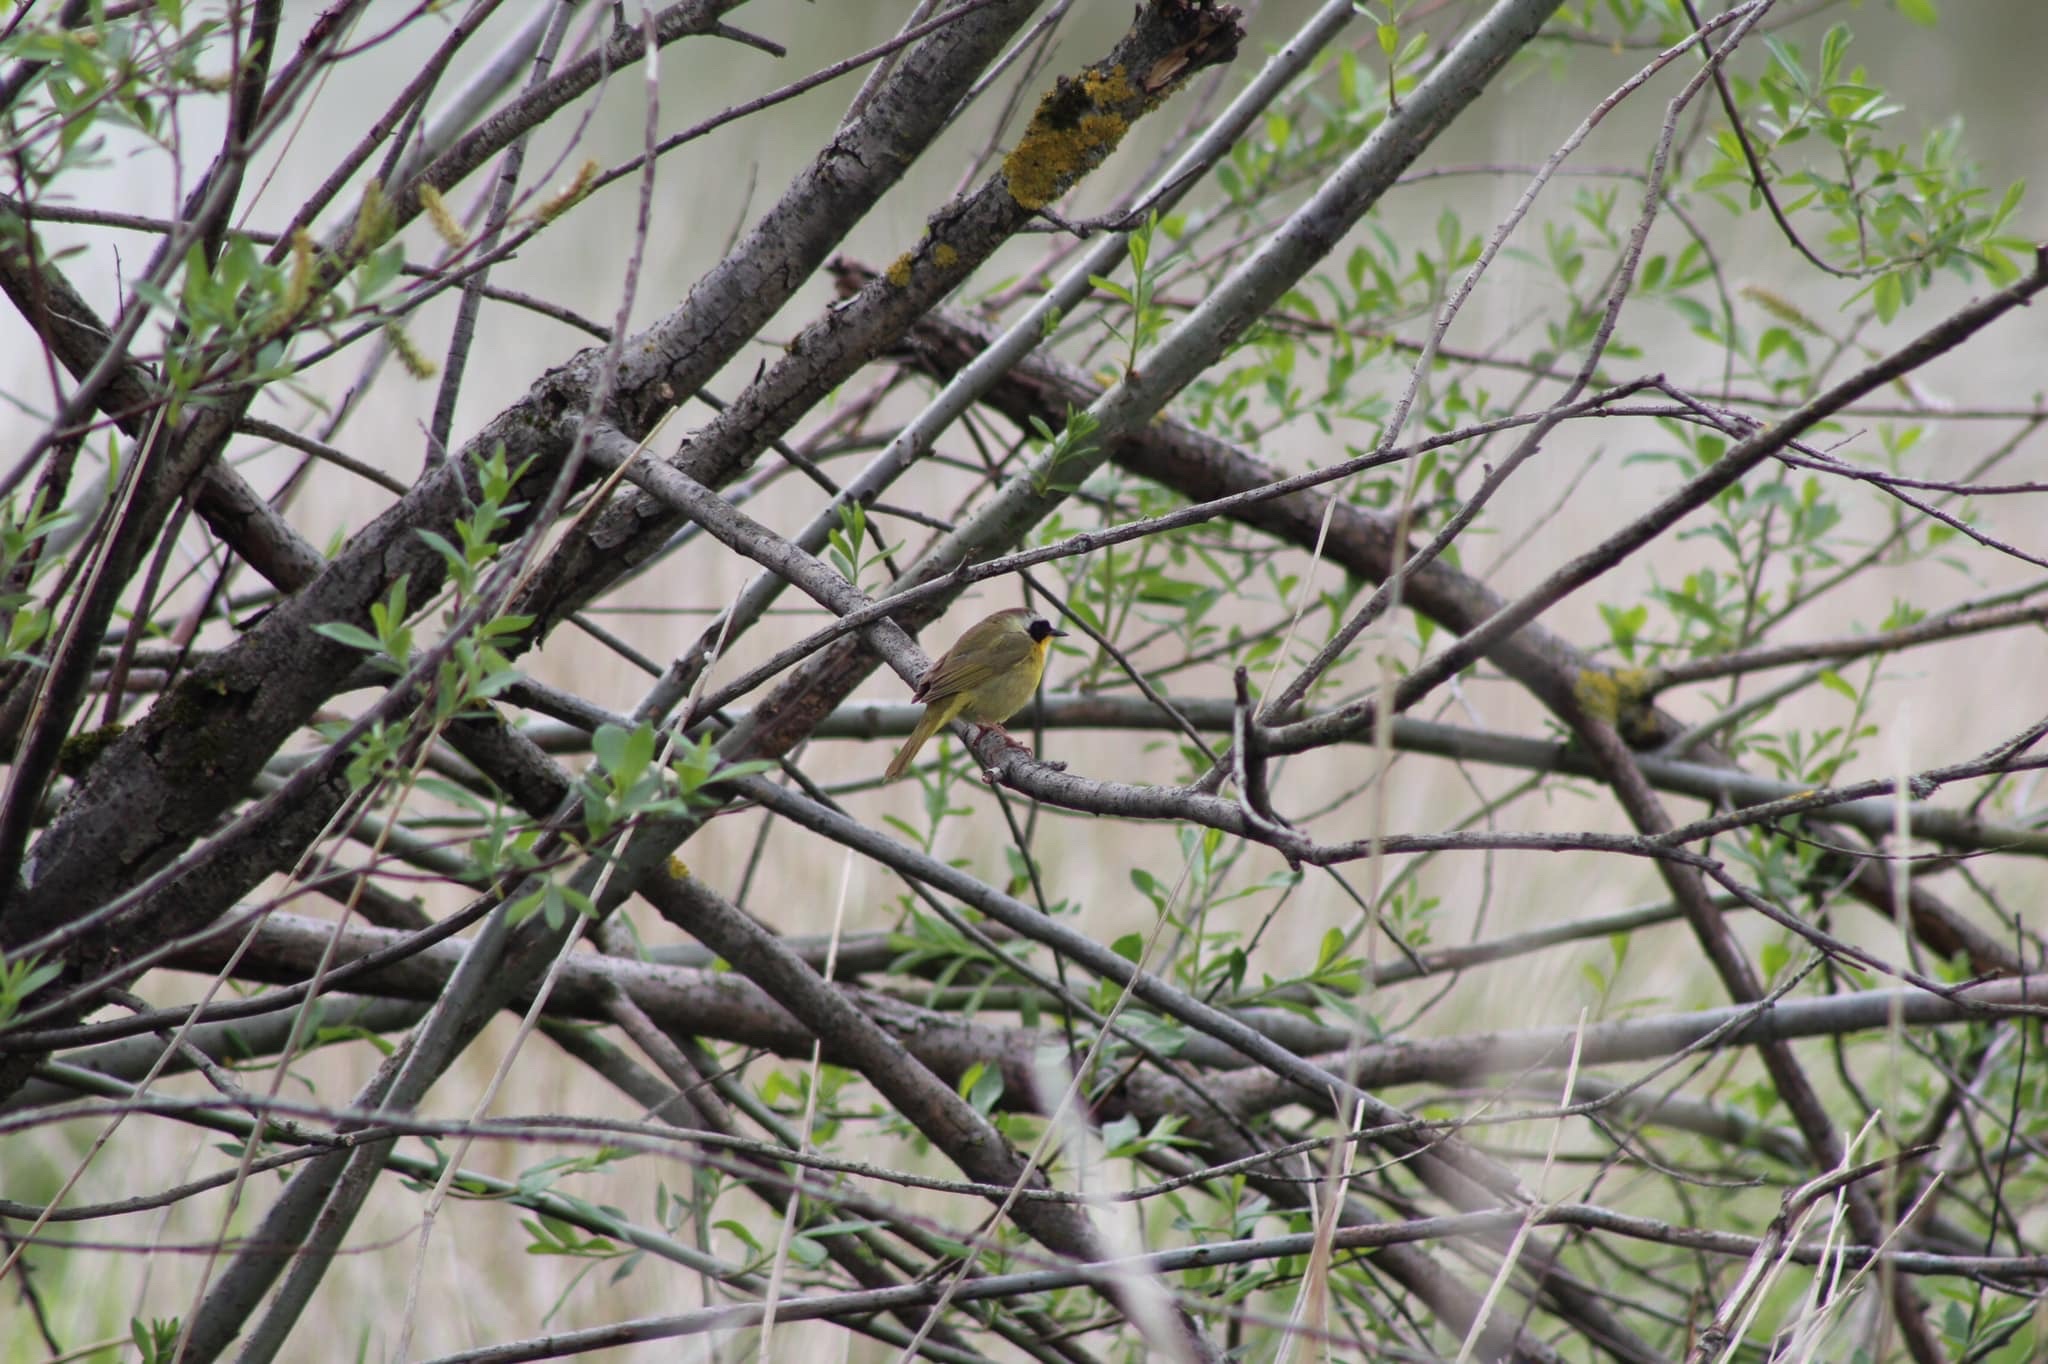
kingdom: Animalia
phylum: Chordata
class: Aves
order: Passeriformes
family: Parulidae
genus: Geothlypis
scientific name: Geothlypis trichas
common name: Common yellowthroat
